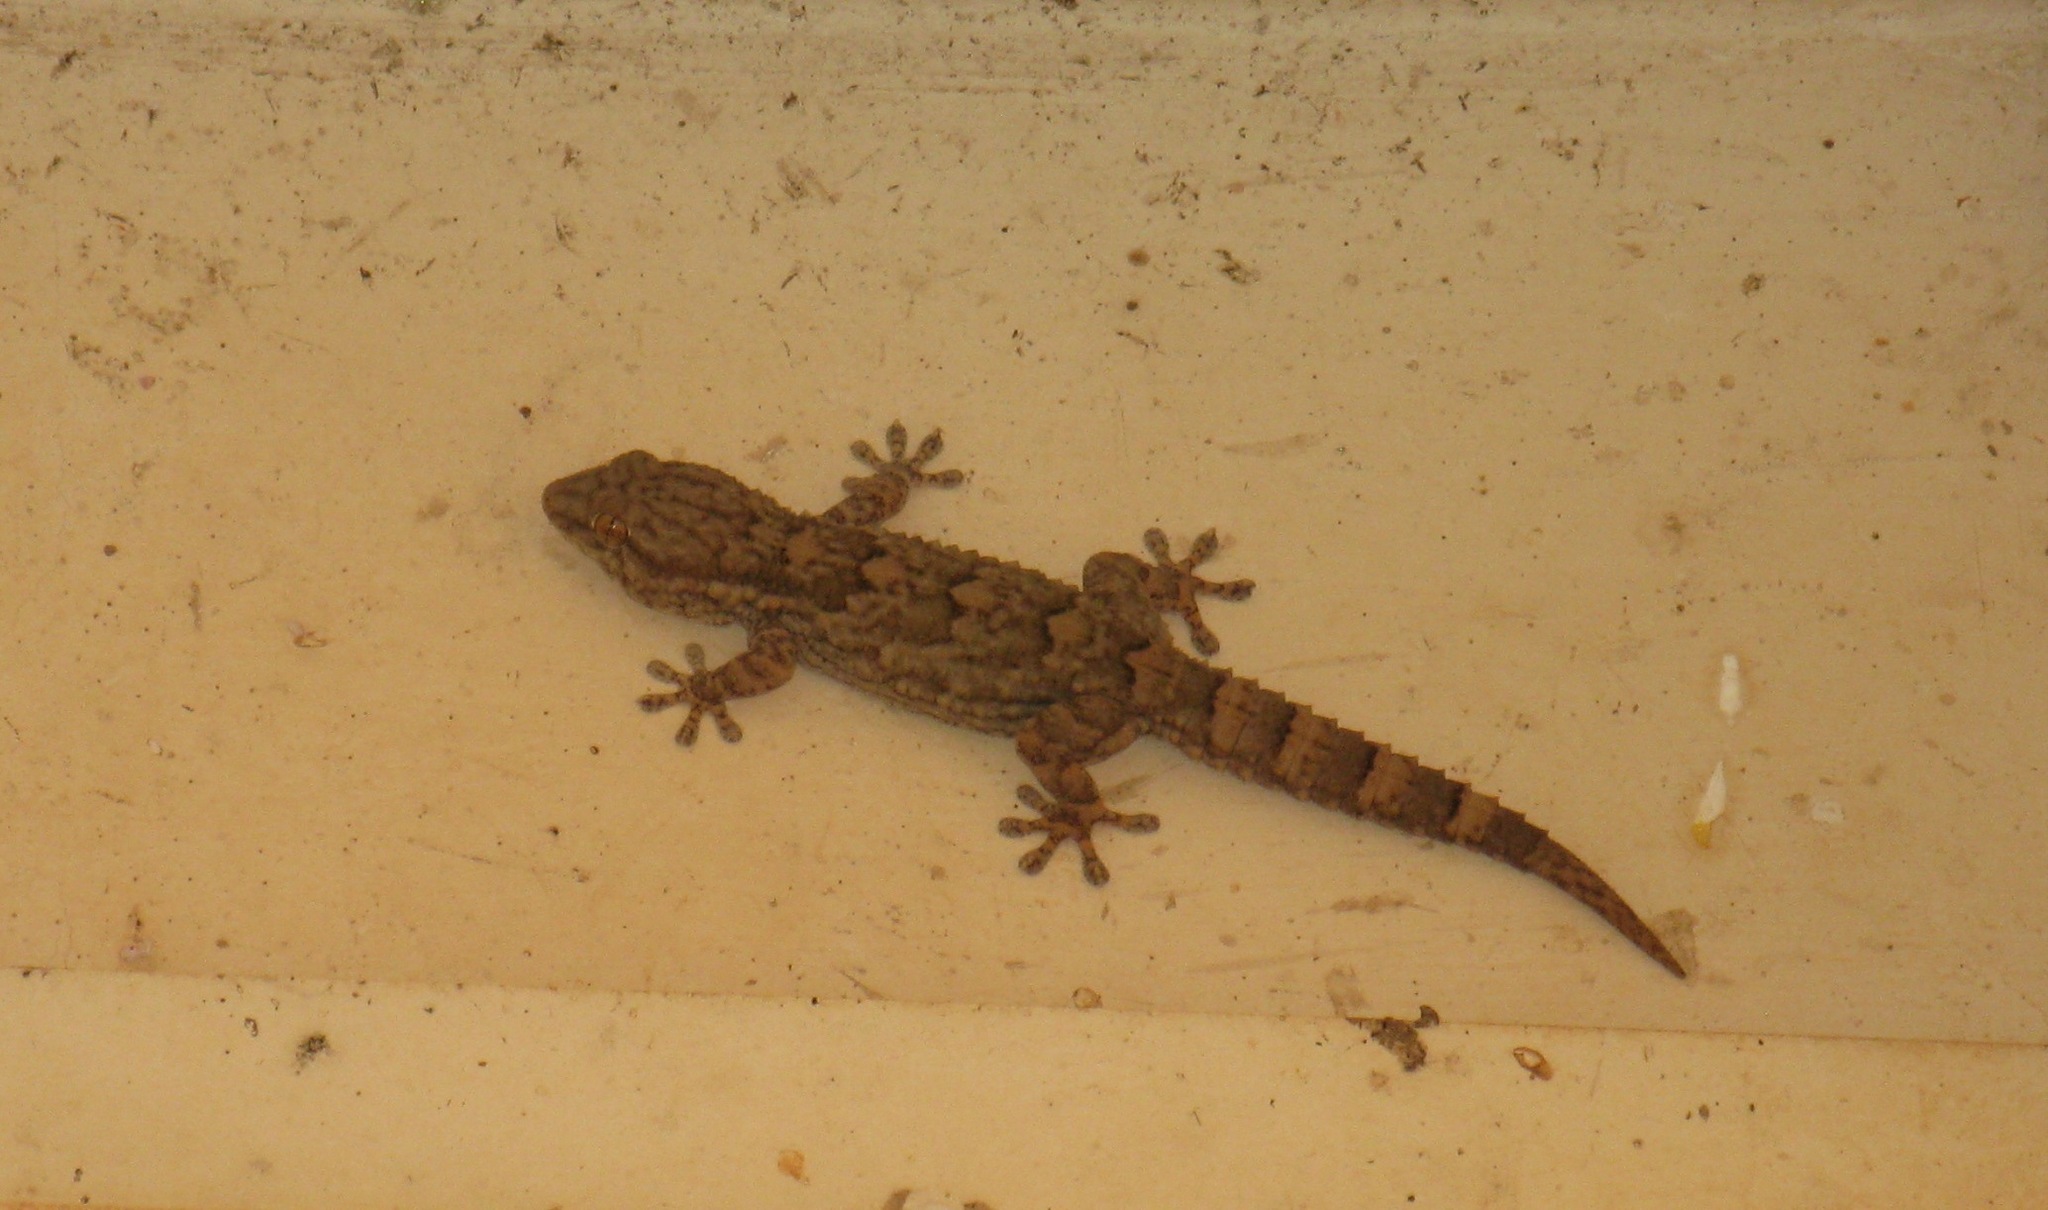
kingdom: Animalia
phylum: Chordata
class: Squamata
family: Phyllodactylidae
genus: Tarentola
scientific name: Tarentola senegambiae
